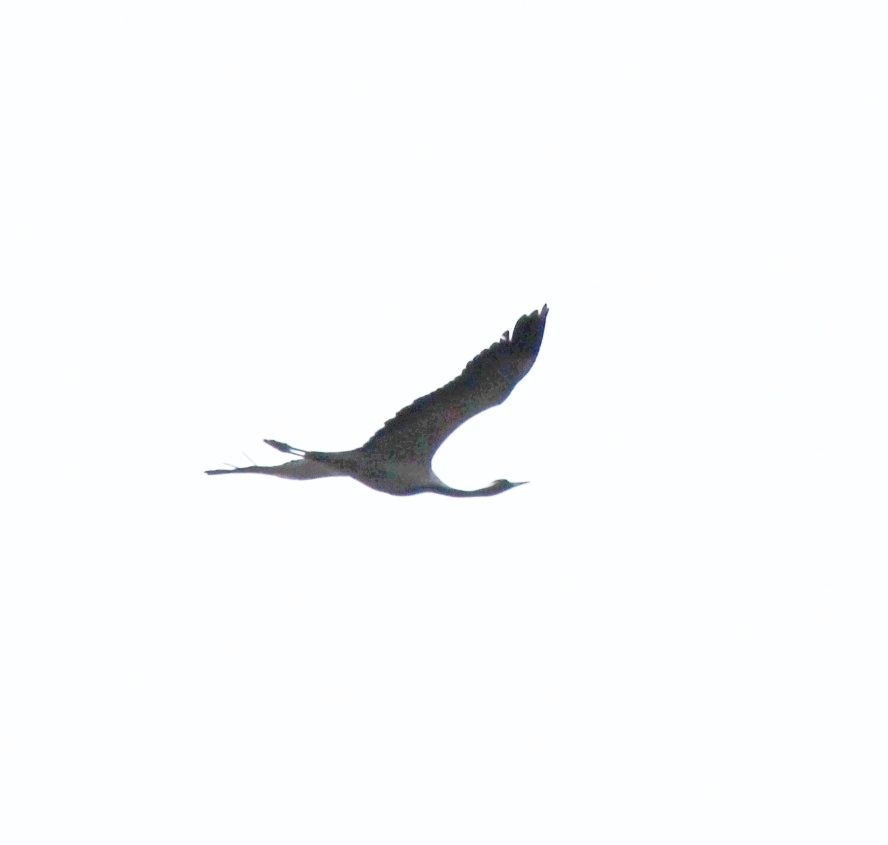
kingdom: Animalia
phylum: Chordata
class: Aves
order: Gruiformes
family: Gruidae
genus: Anthropoides
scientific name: Anthropoides virgo
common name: Demoiselle crane
